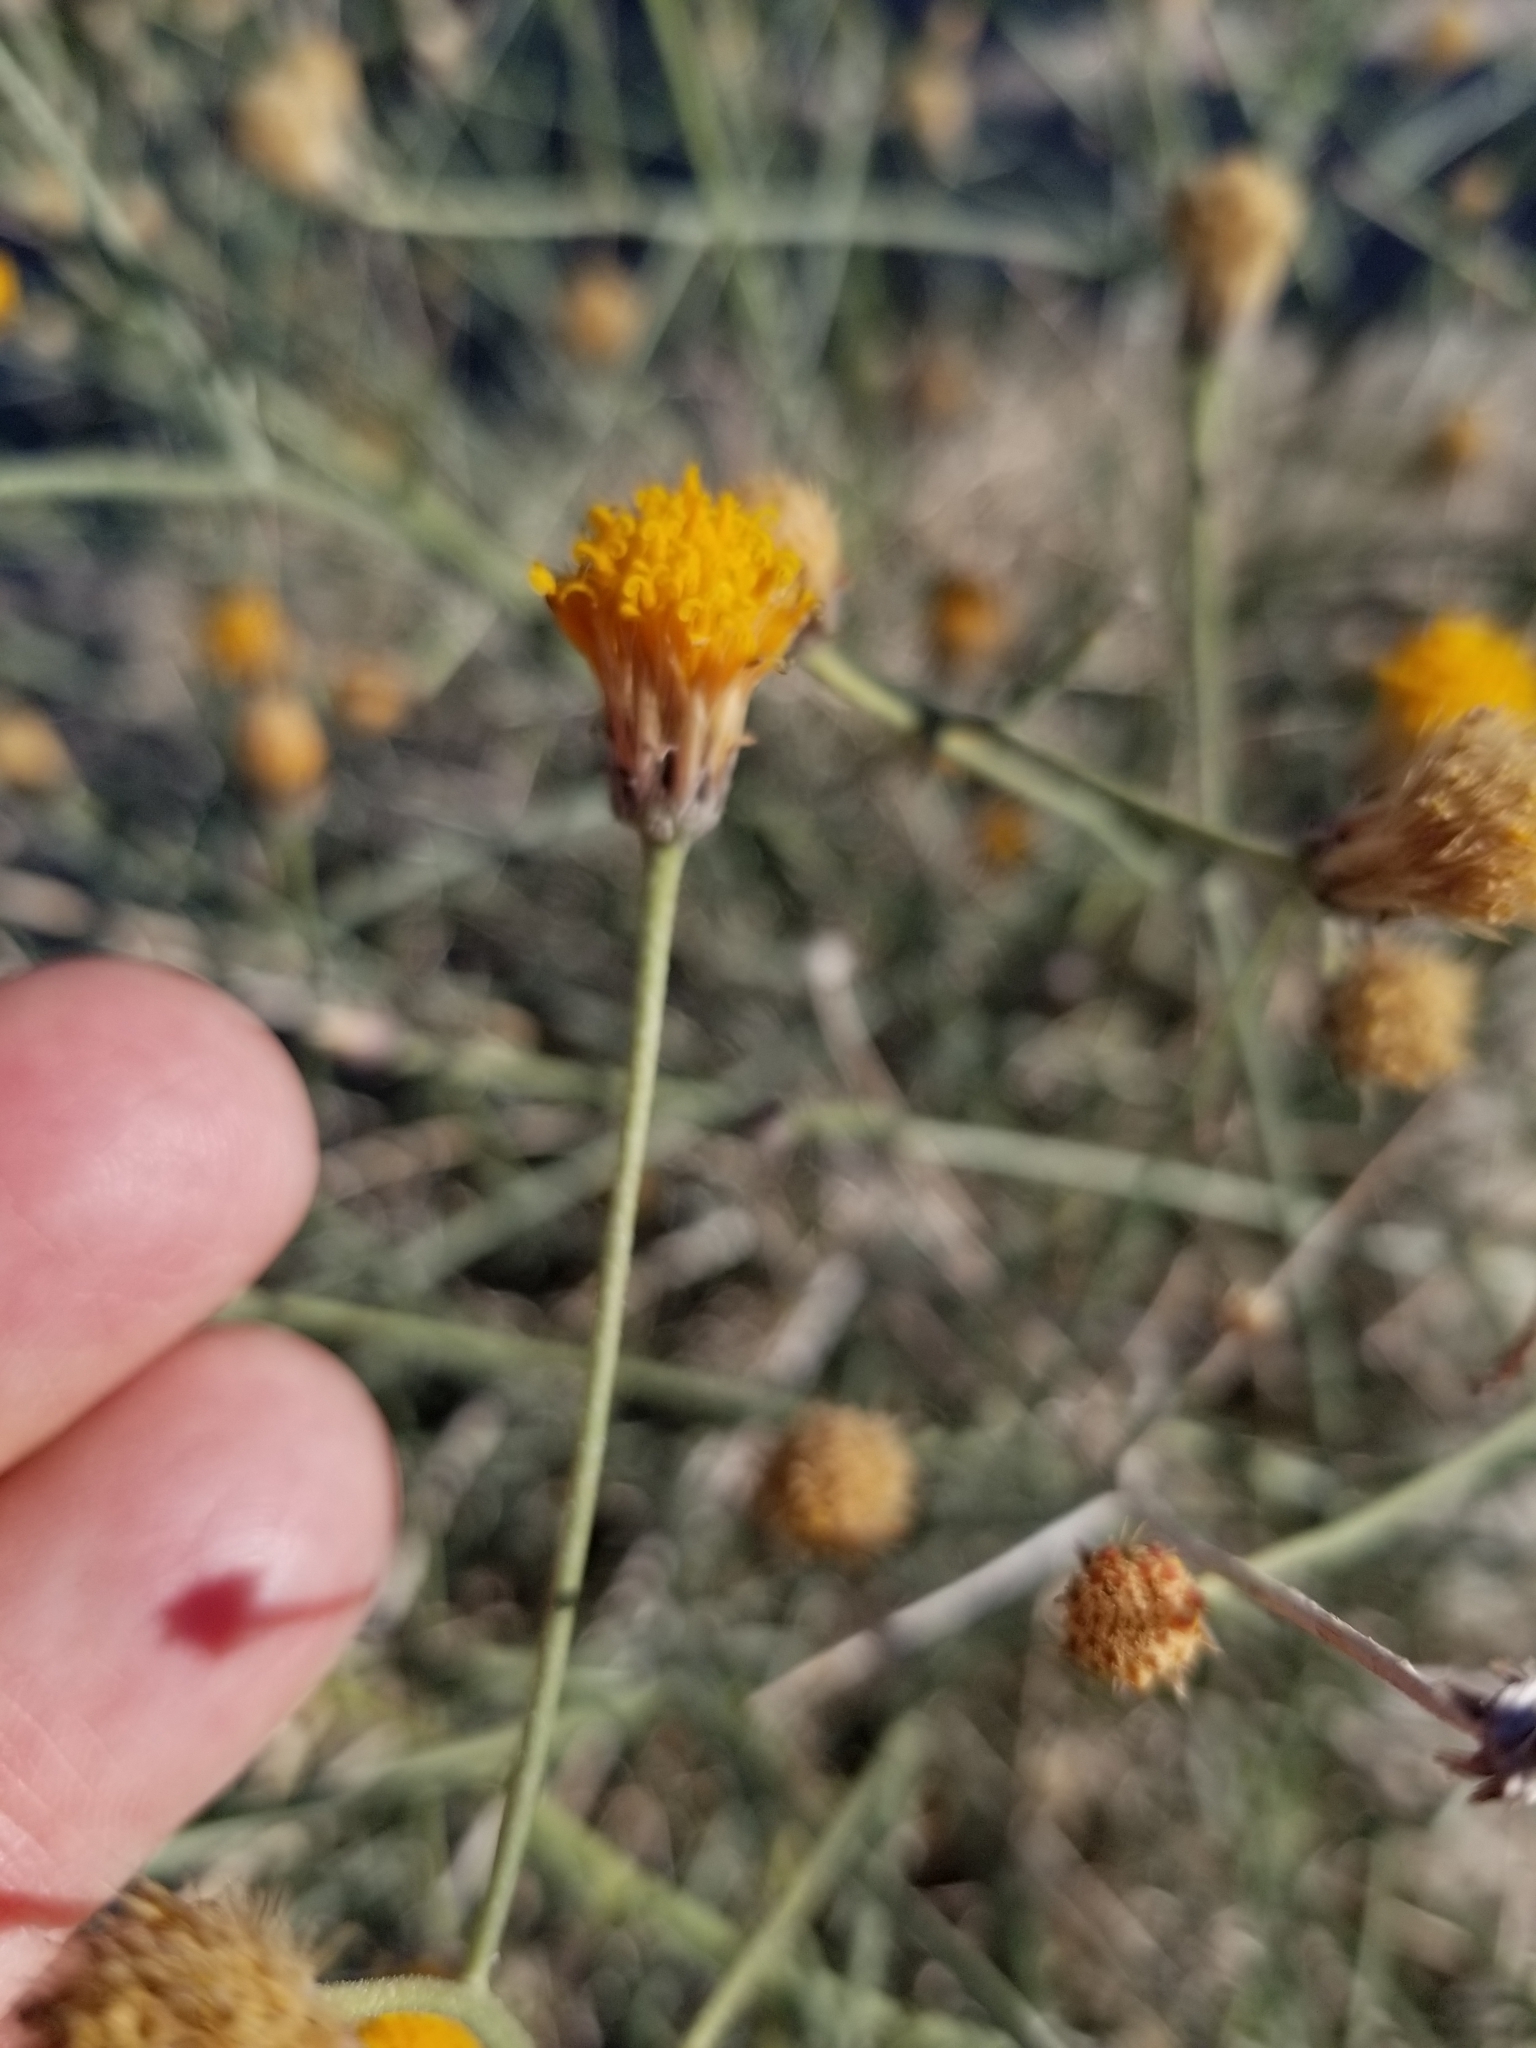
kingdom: Plantae
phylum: Tracheophyta
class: Magnoliopsida
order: Asterales
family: Asteraceae
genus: Bebbia
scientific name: Bebbia juncea
